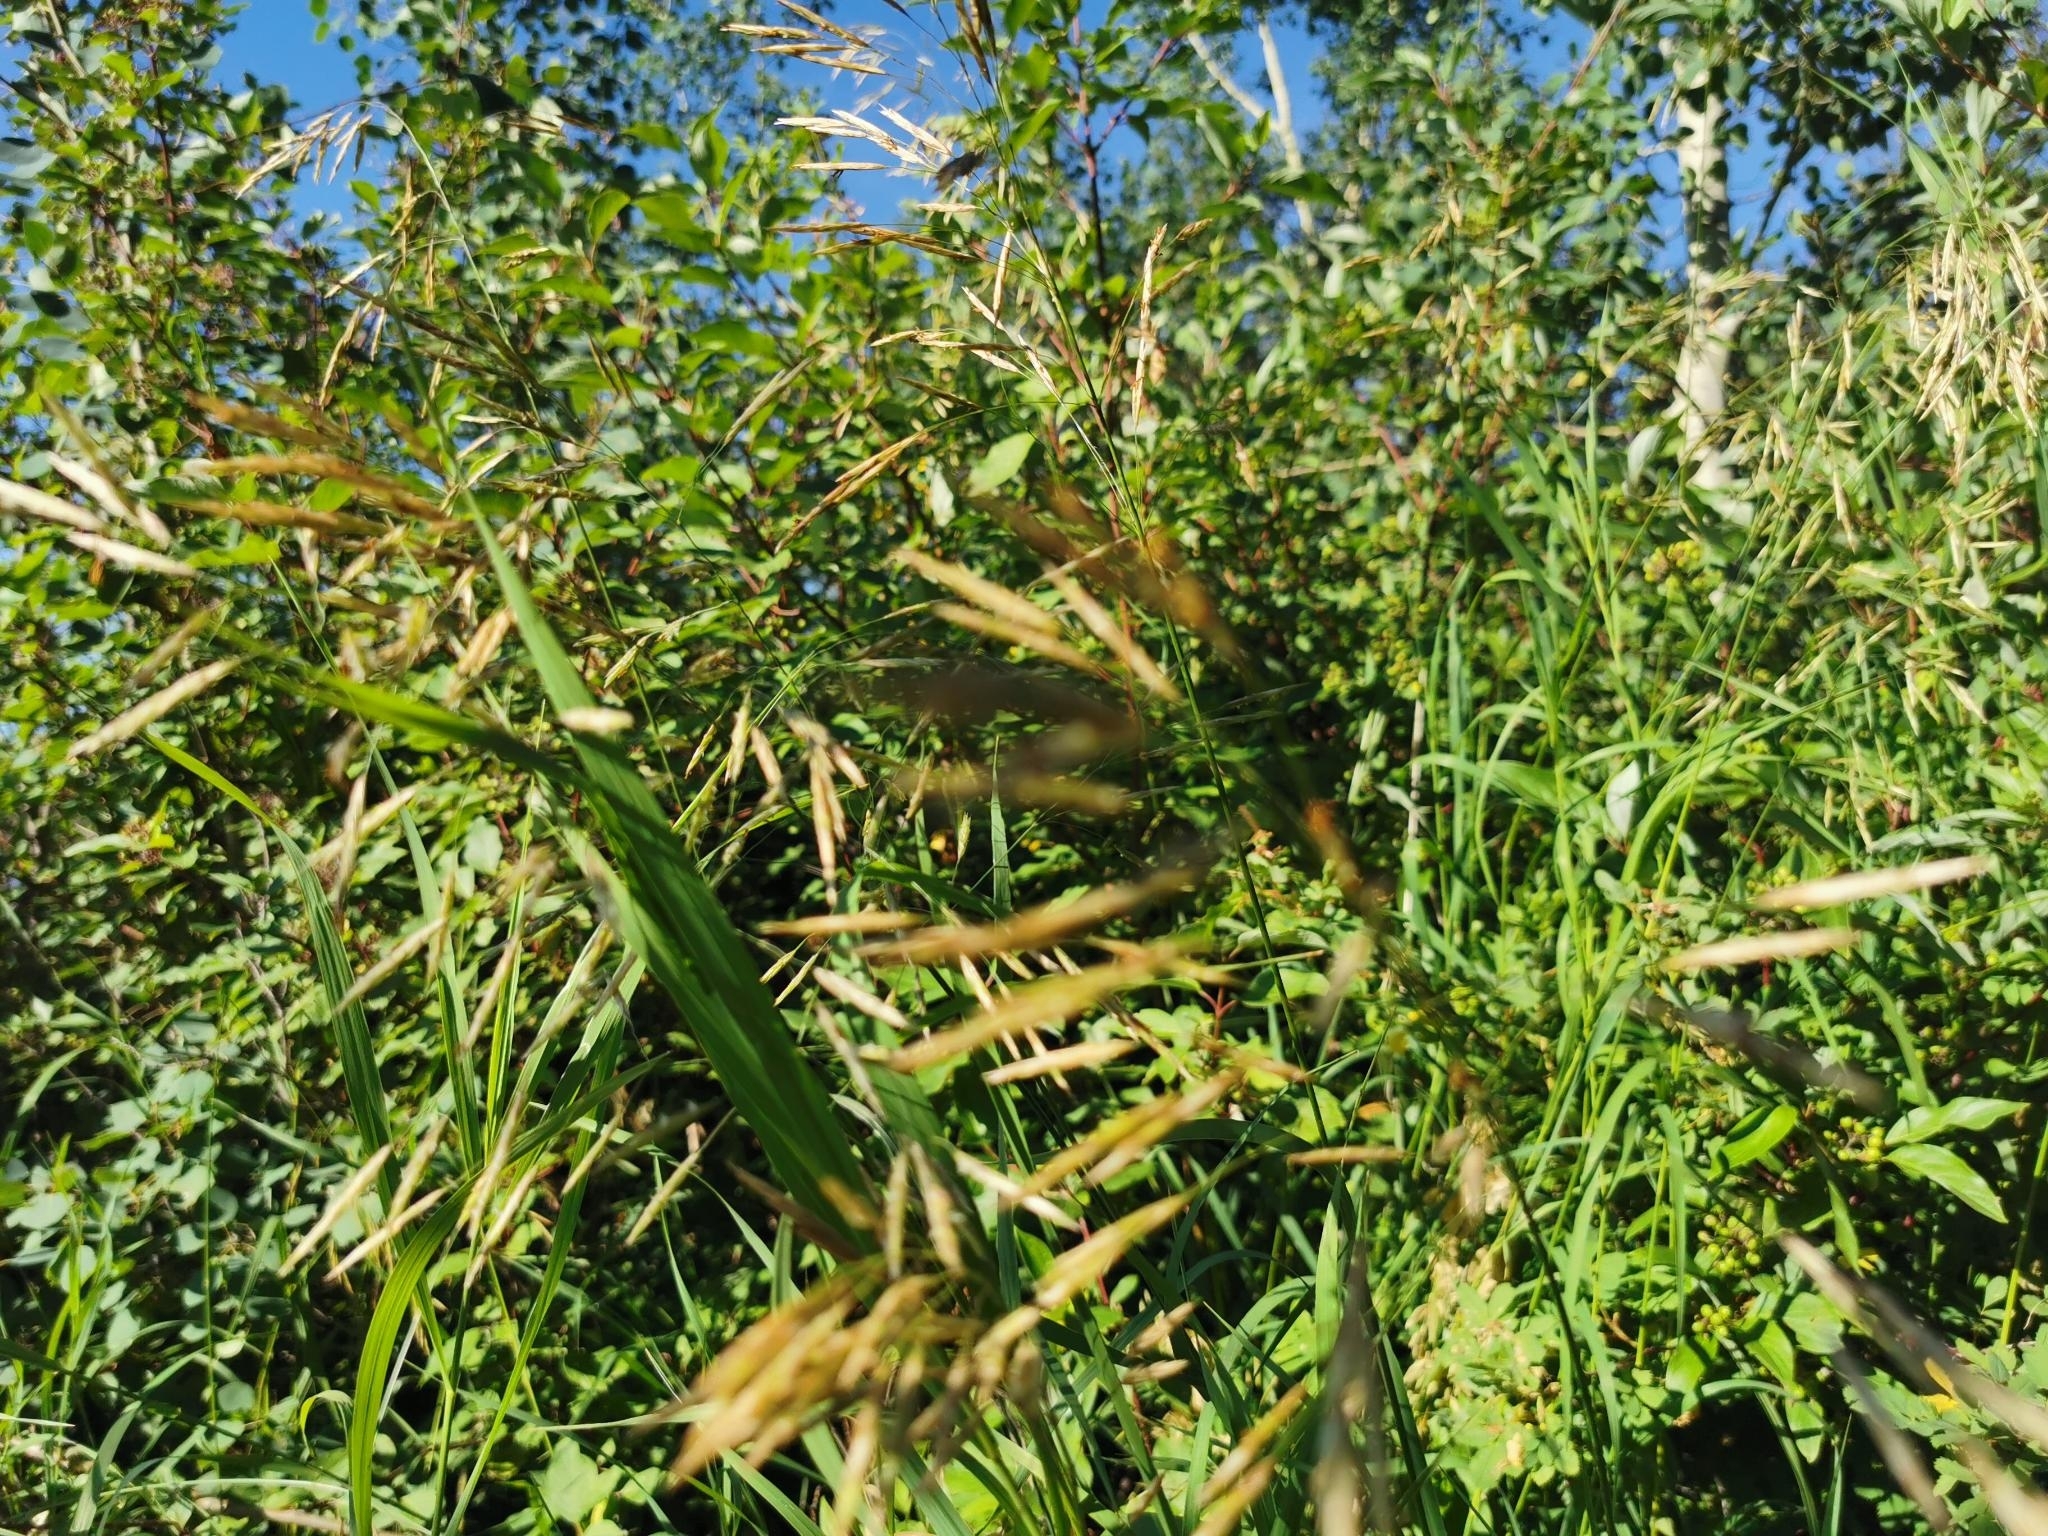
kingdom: Plantae
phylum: Tracheophyta
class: Liliopsida
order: Poales
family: Poaceae
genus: Bromus
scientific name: Bromus inermis
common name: Smooth brome
